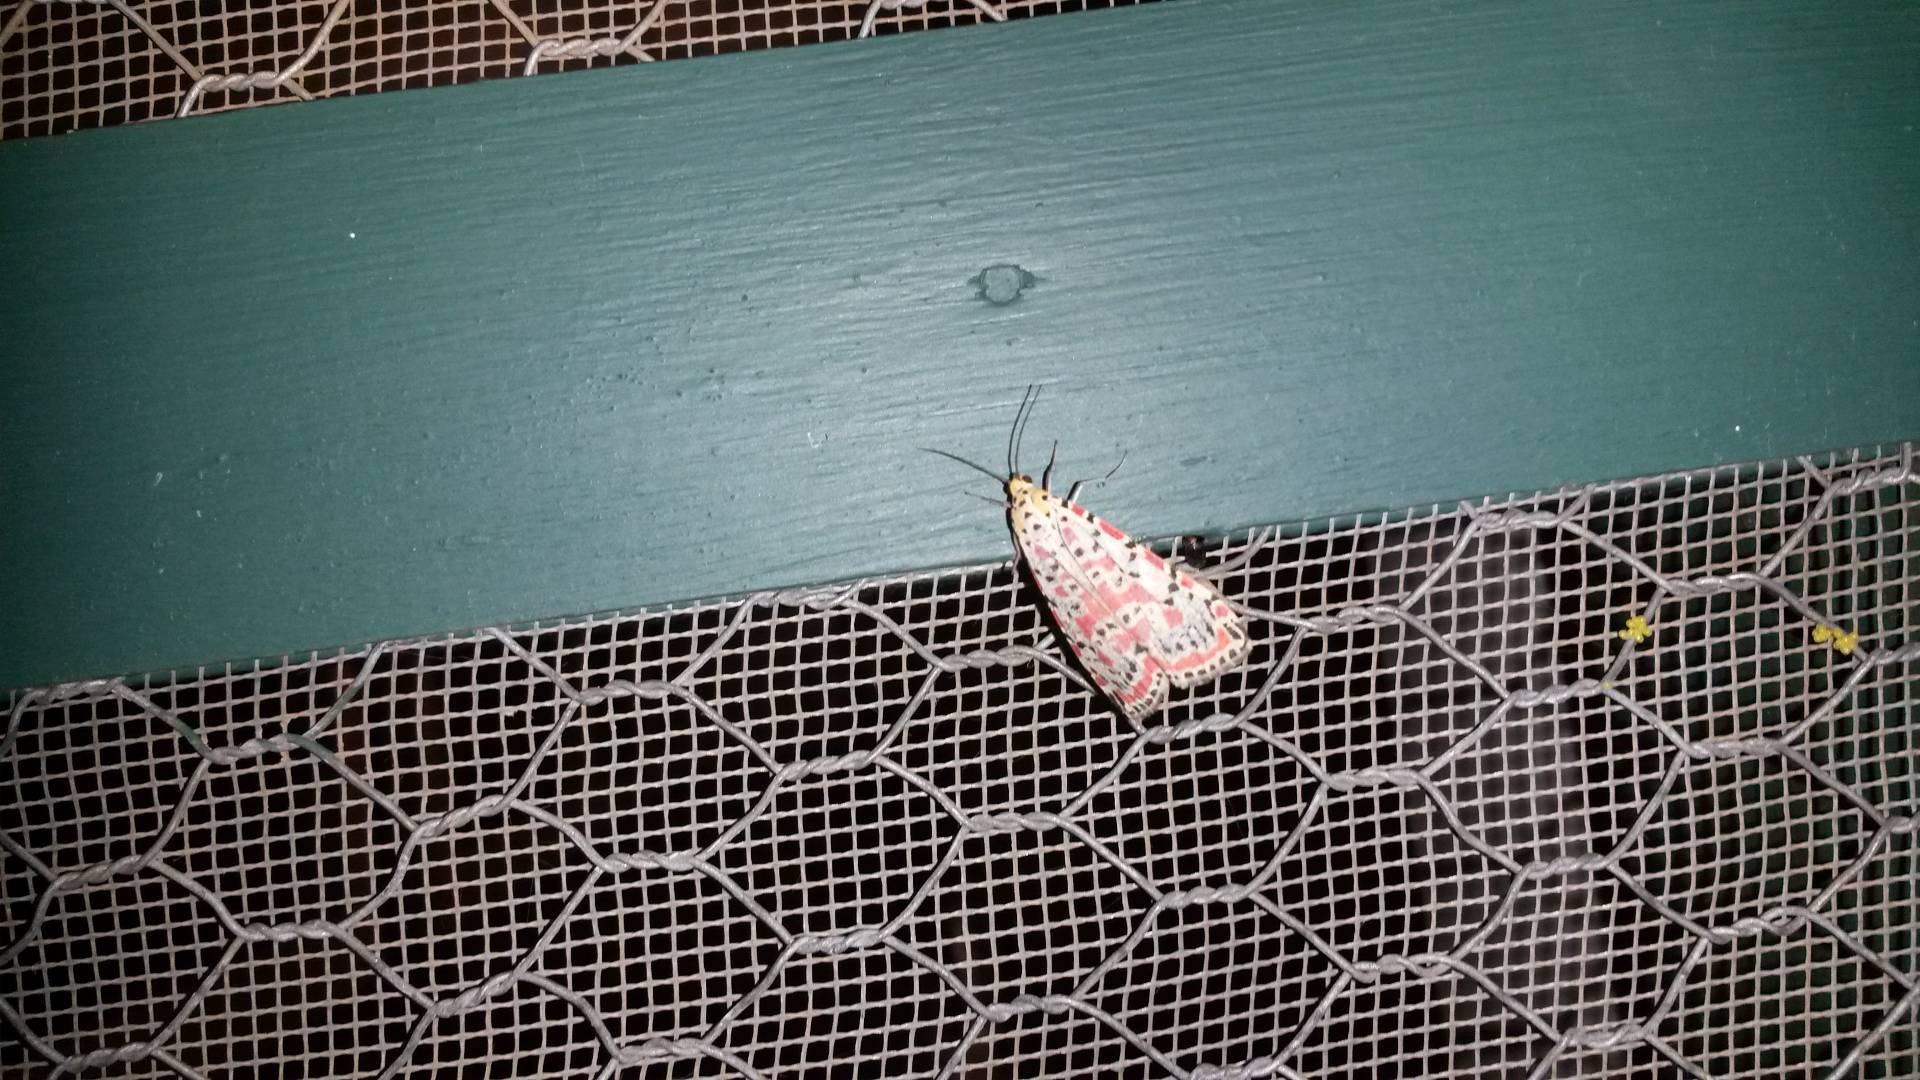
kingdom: Animalia
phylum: Arthropoda
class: Insecta
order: Lepidoptera
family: Erebidae
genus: Utetheisa
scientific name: Utetheisa pulchella
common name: Crimson speckled
